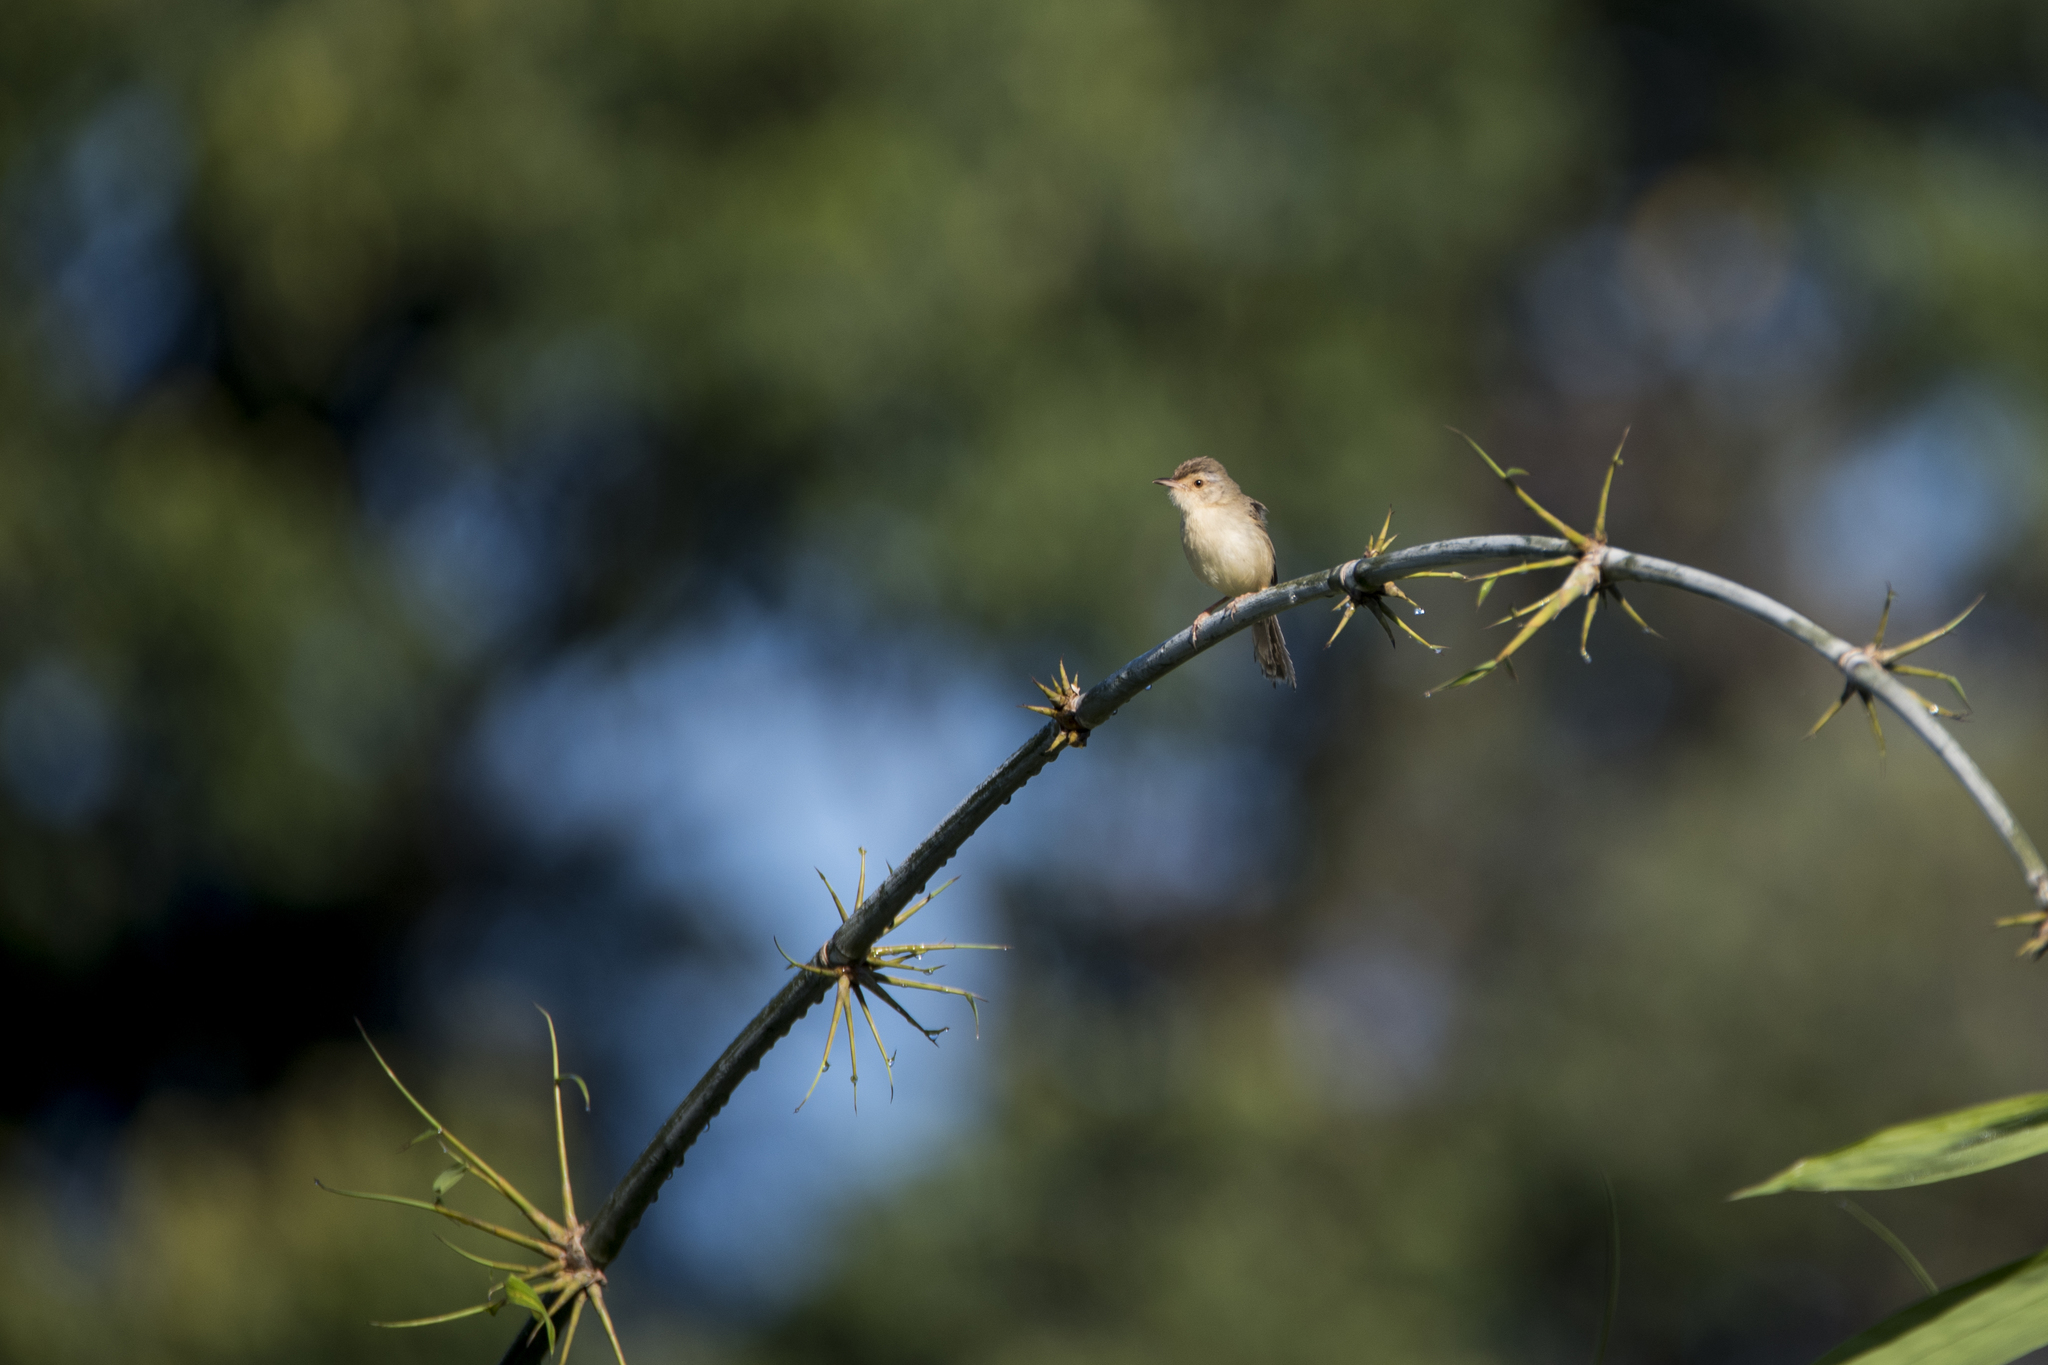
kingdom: Animalia
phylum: Chordata
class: Aves
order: Passeriformes
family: Cisticolidae
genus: Prinia
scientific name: Prinia inornata
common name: Plain prinia
